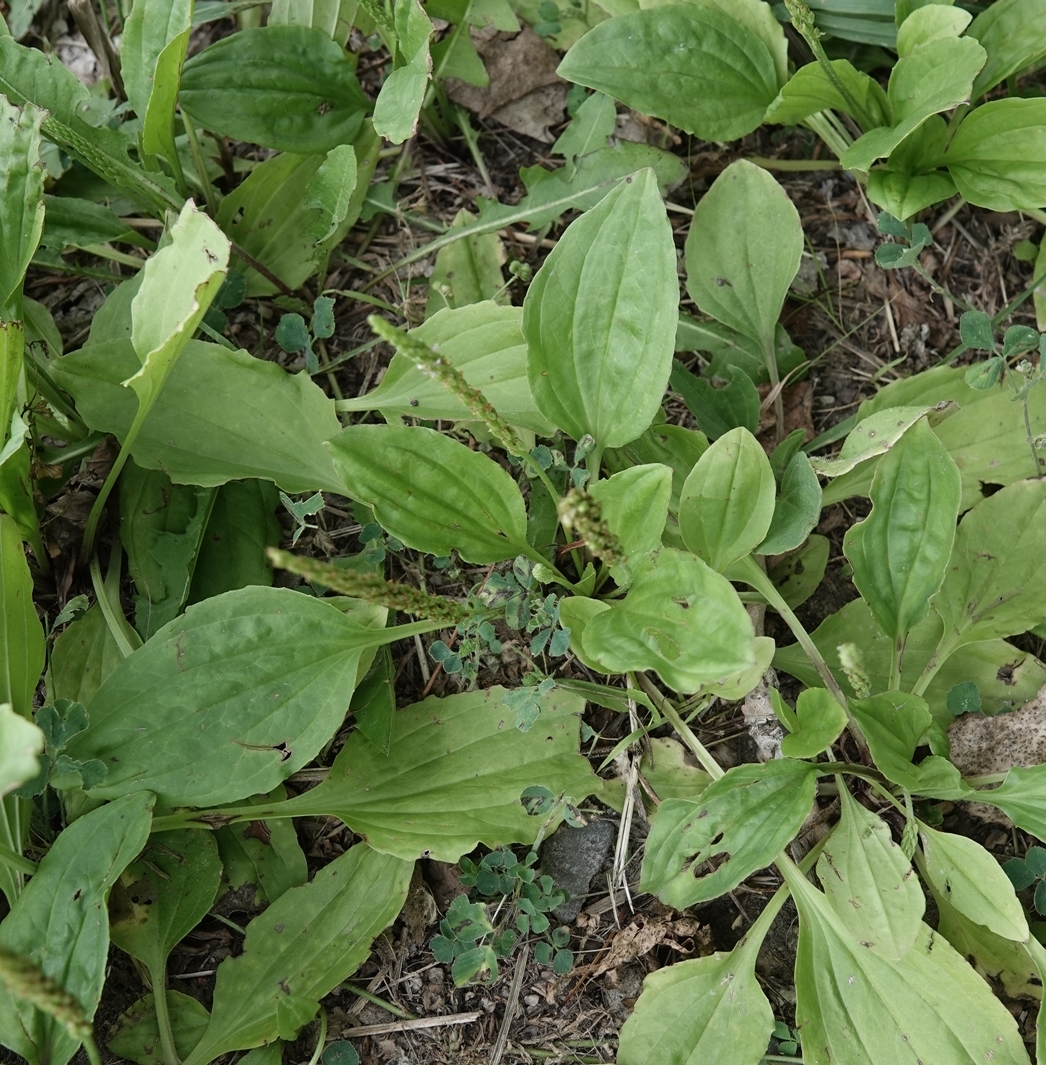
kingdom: Plantae
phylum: Tracheophyta
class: Magnoliopsida
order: Lamiales
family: Plantaginaceae
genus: Plantago
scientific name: Plantago major
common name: Common plantain
